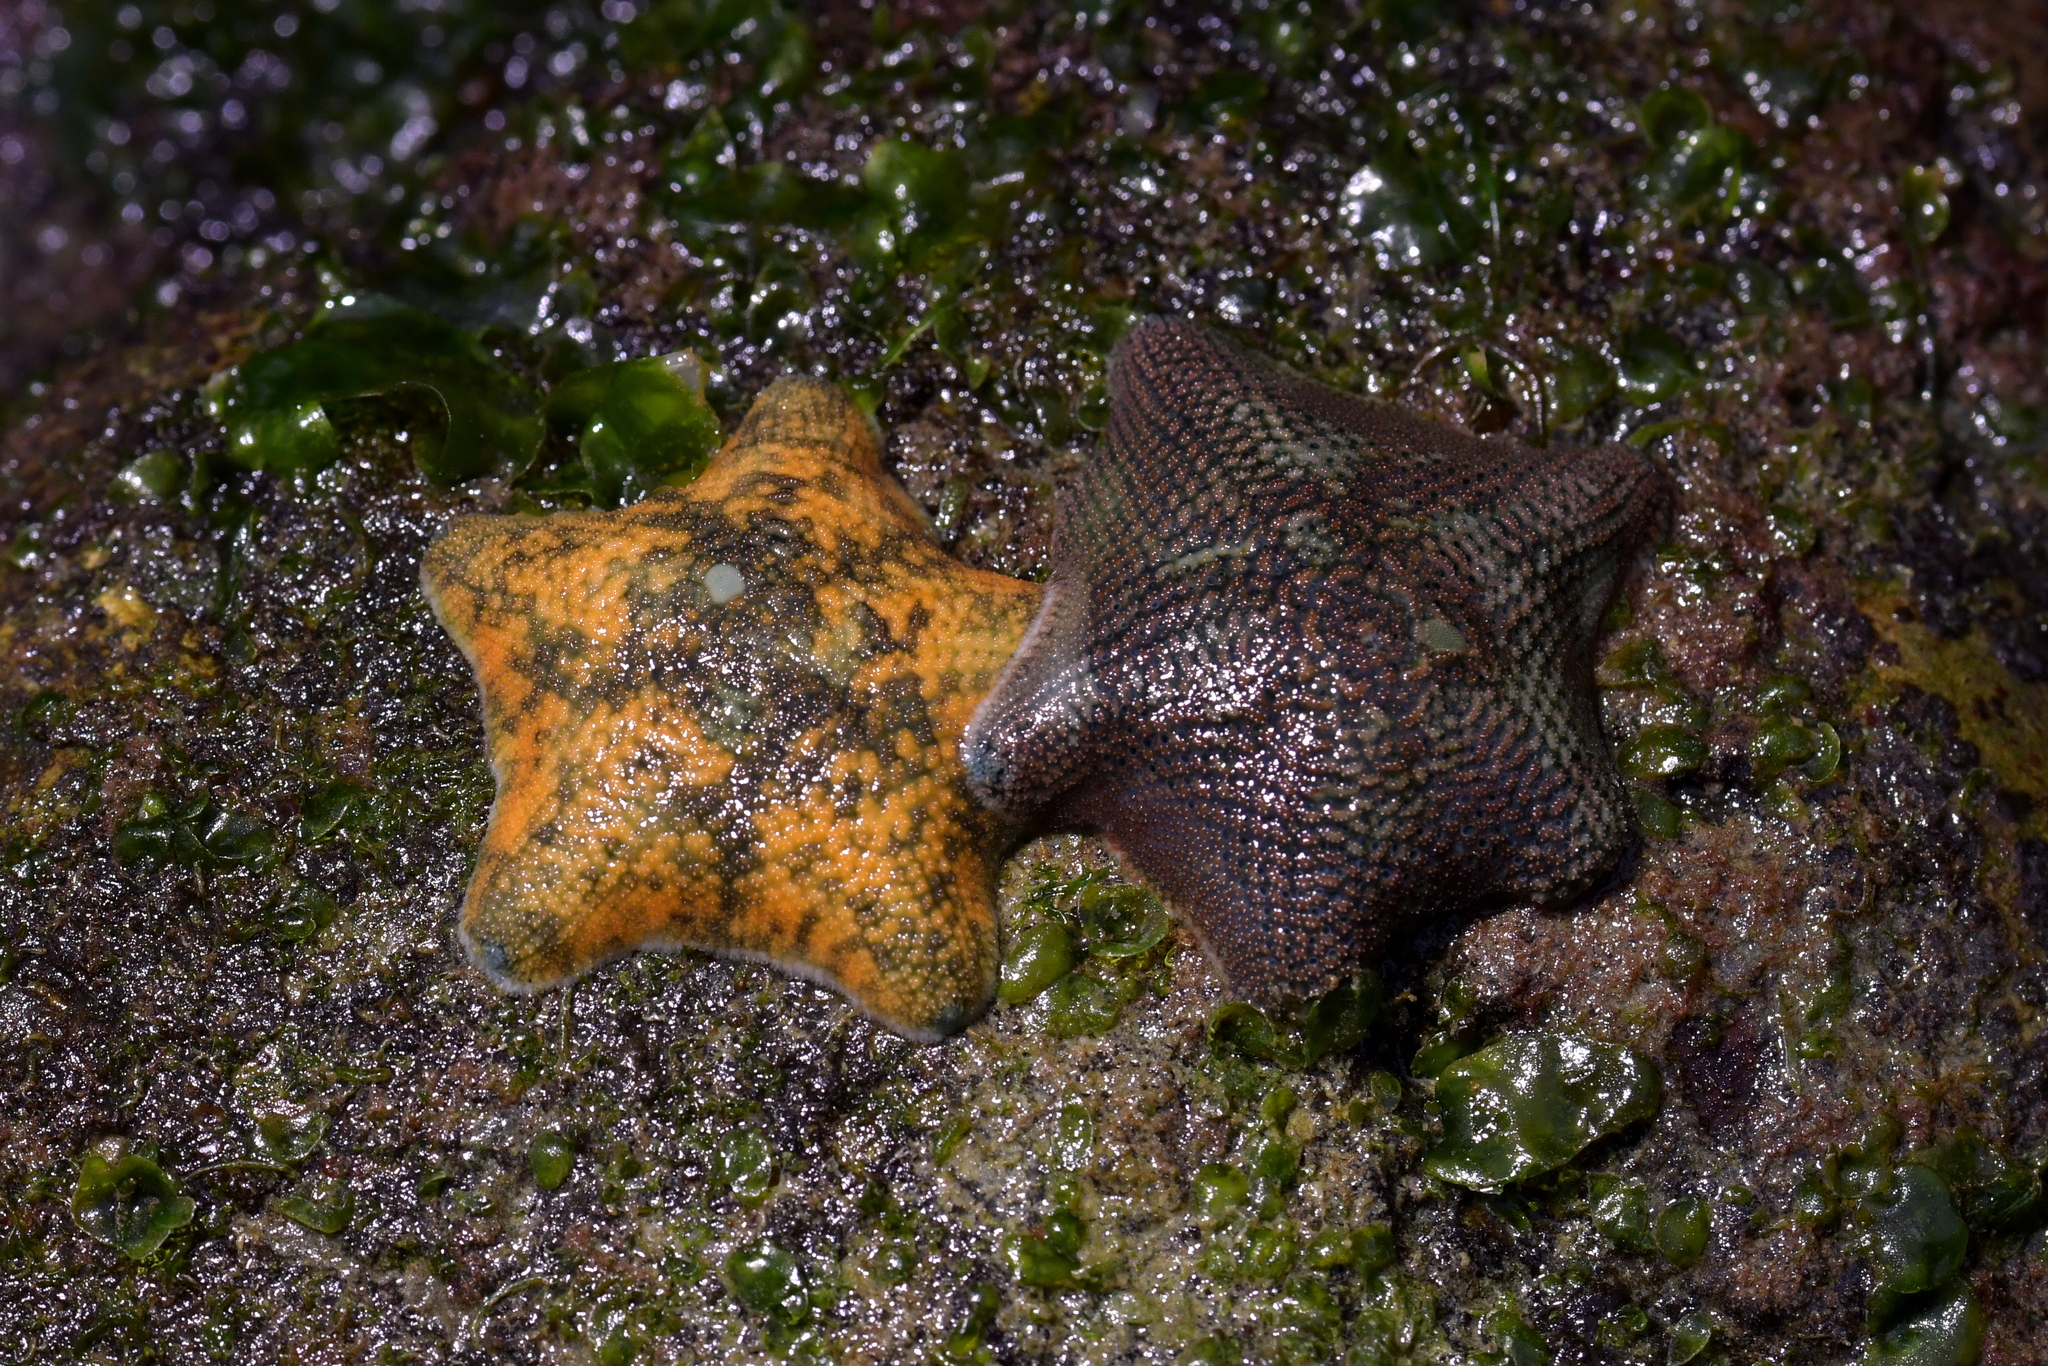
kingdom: Animalia
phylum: Echinodermata
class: Asteroidea
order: Valvatida
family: Asterinidae
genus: Patiriella
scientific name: Patiriella regularis
